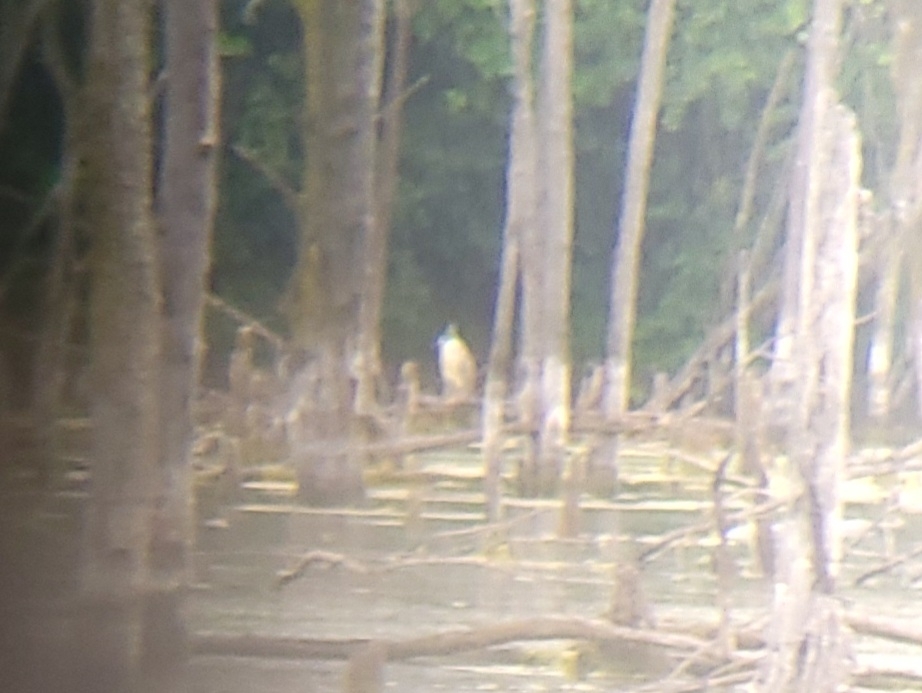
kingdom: Animalia
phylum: Chordata
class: Aves
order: Pelecaniformes
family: Ardeidae
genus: Nycticorax
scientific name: Nycticorax nycticorax
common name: Black-crowned night heron
